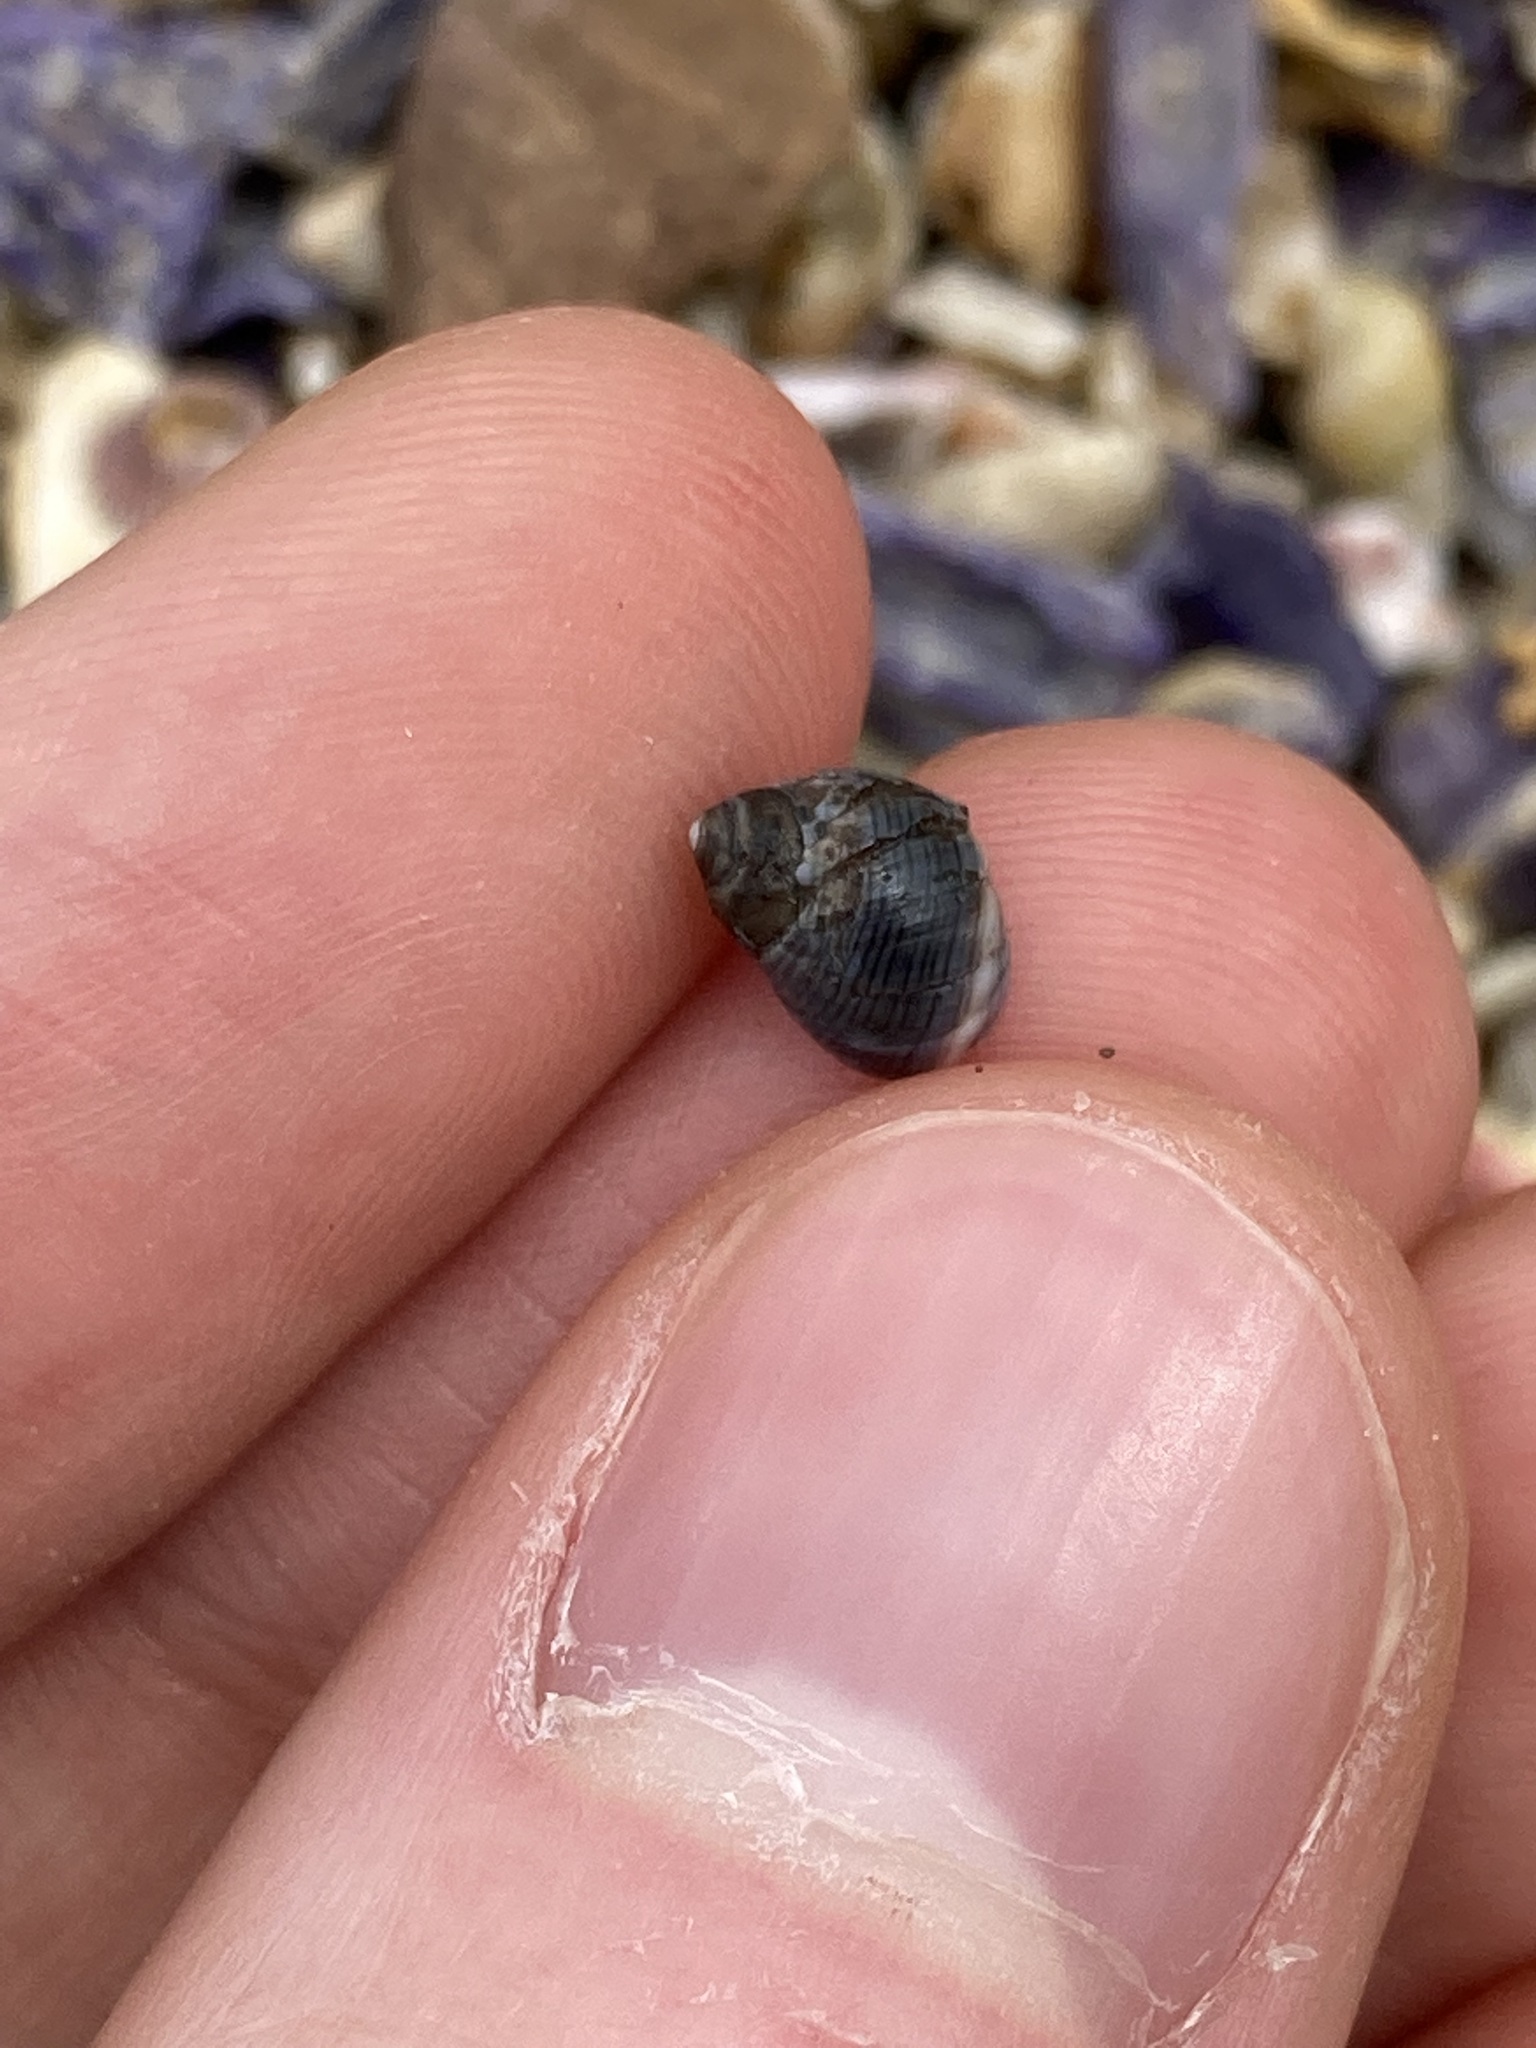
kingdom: Animalia
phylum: Mollusca
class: Gastropoda
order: Littorinimorpha
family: Littorinidae
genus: Austrolittorina
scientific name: Austrolittorina unifasciata
